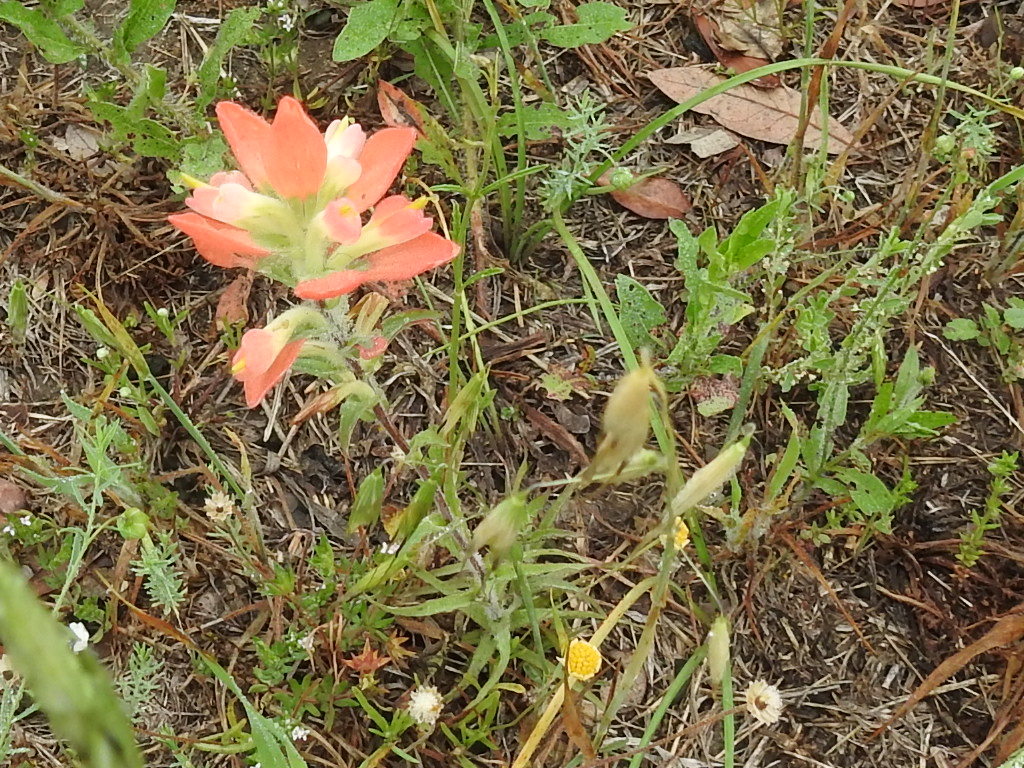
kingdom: Plantae
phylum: Tracheophyta
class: Magnoliopsida
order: Lamiales
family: Orobanchaceae
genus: Castilleja
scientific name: Castilleja indivisa
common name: Texas paintbrush
